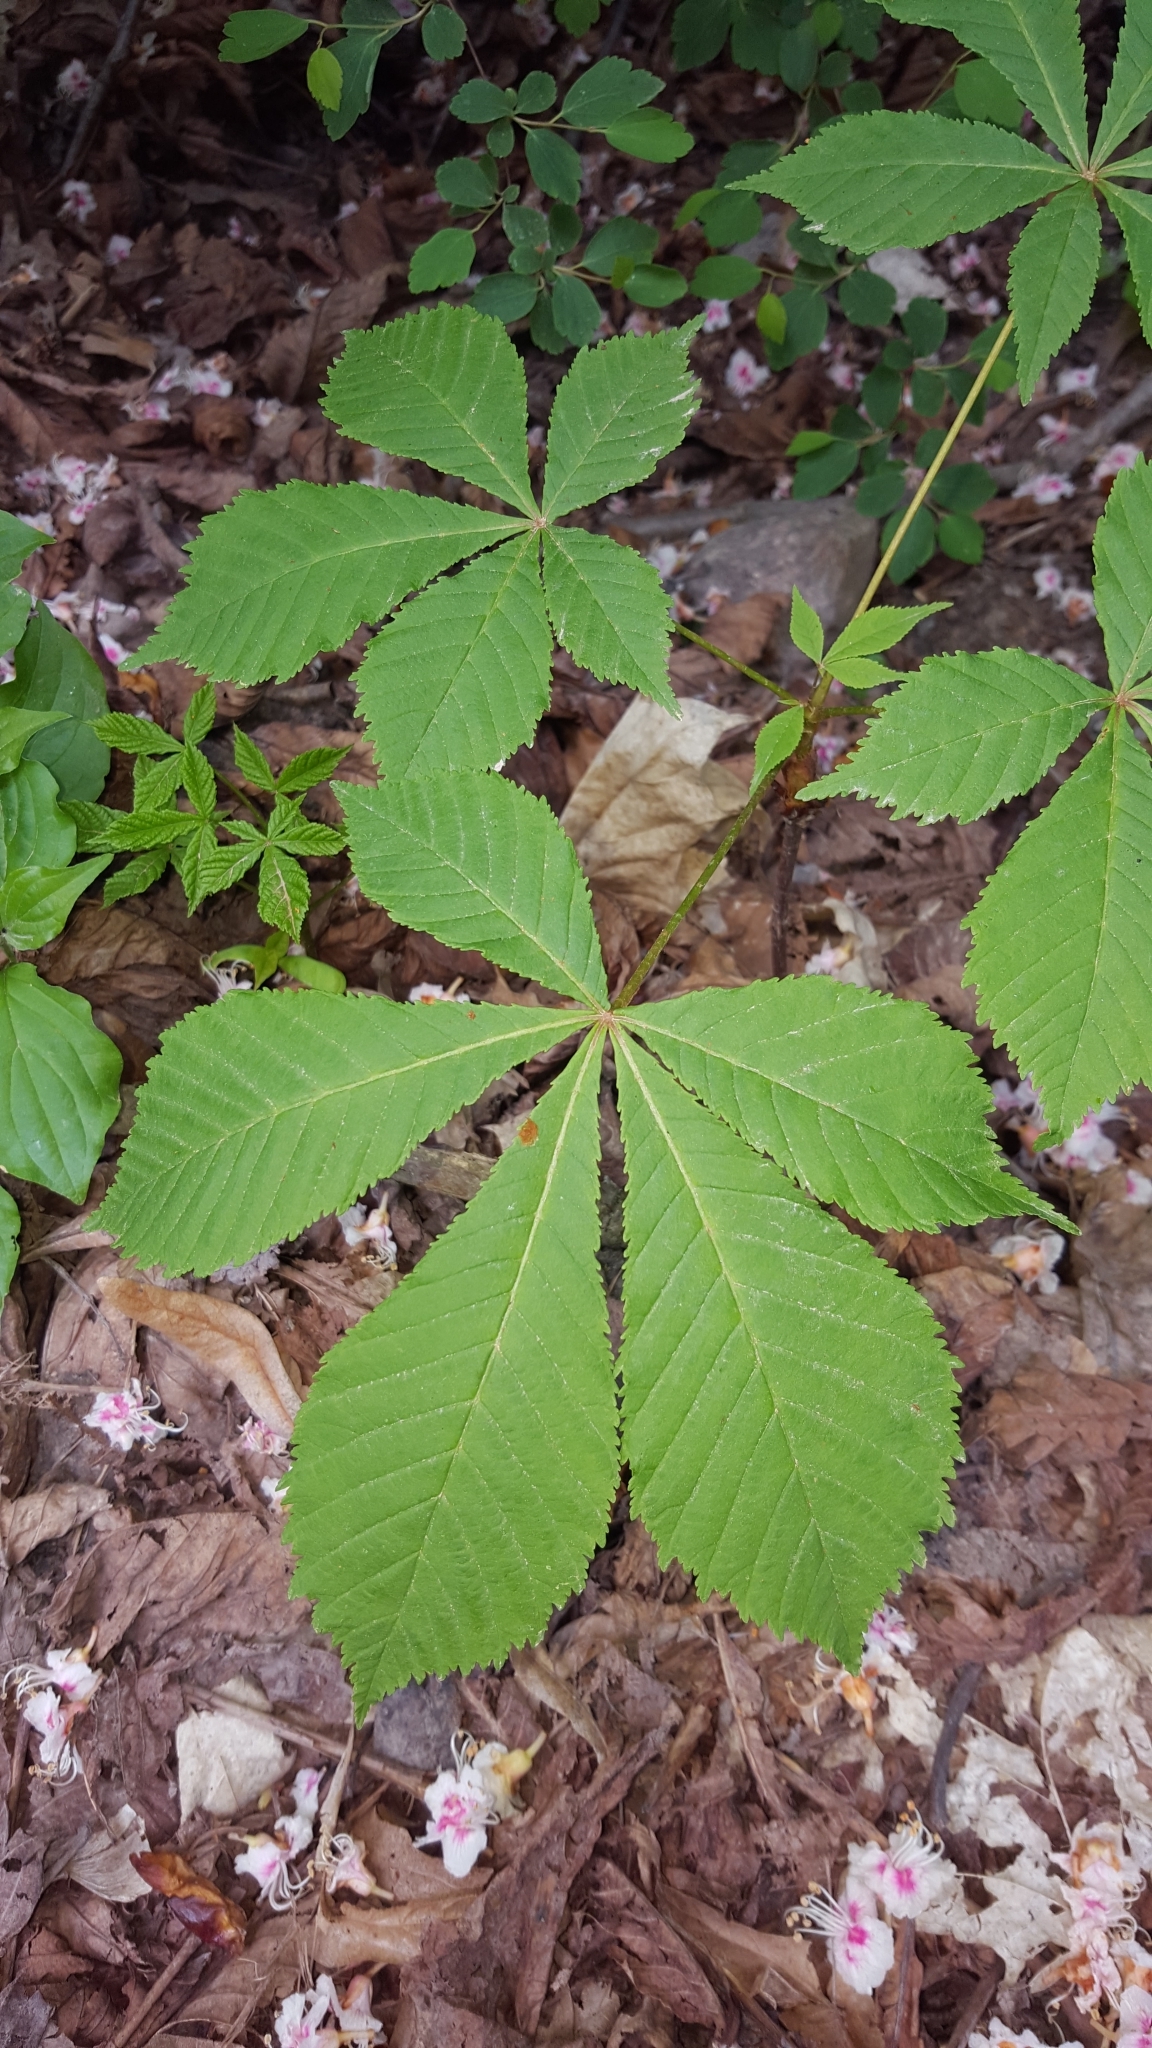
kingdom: Plantae
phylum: Tracheophyta
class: Magnoliopsida
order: Sapindales
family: Sapindaceae
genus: Aesculus
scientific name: Aesculus hippocastanum
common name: Horse-chestnut
